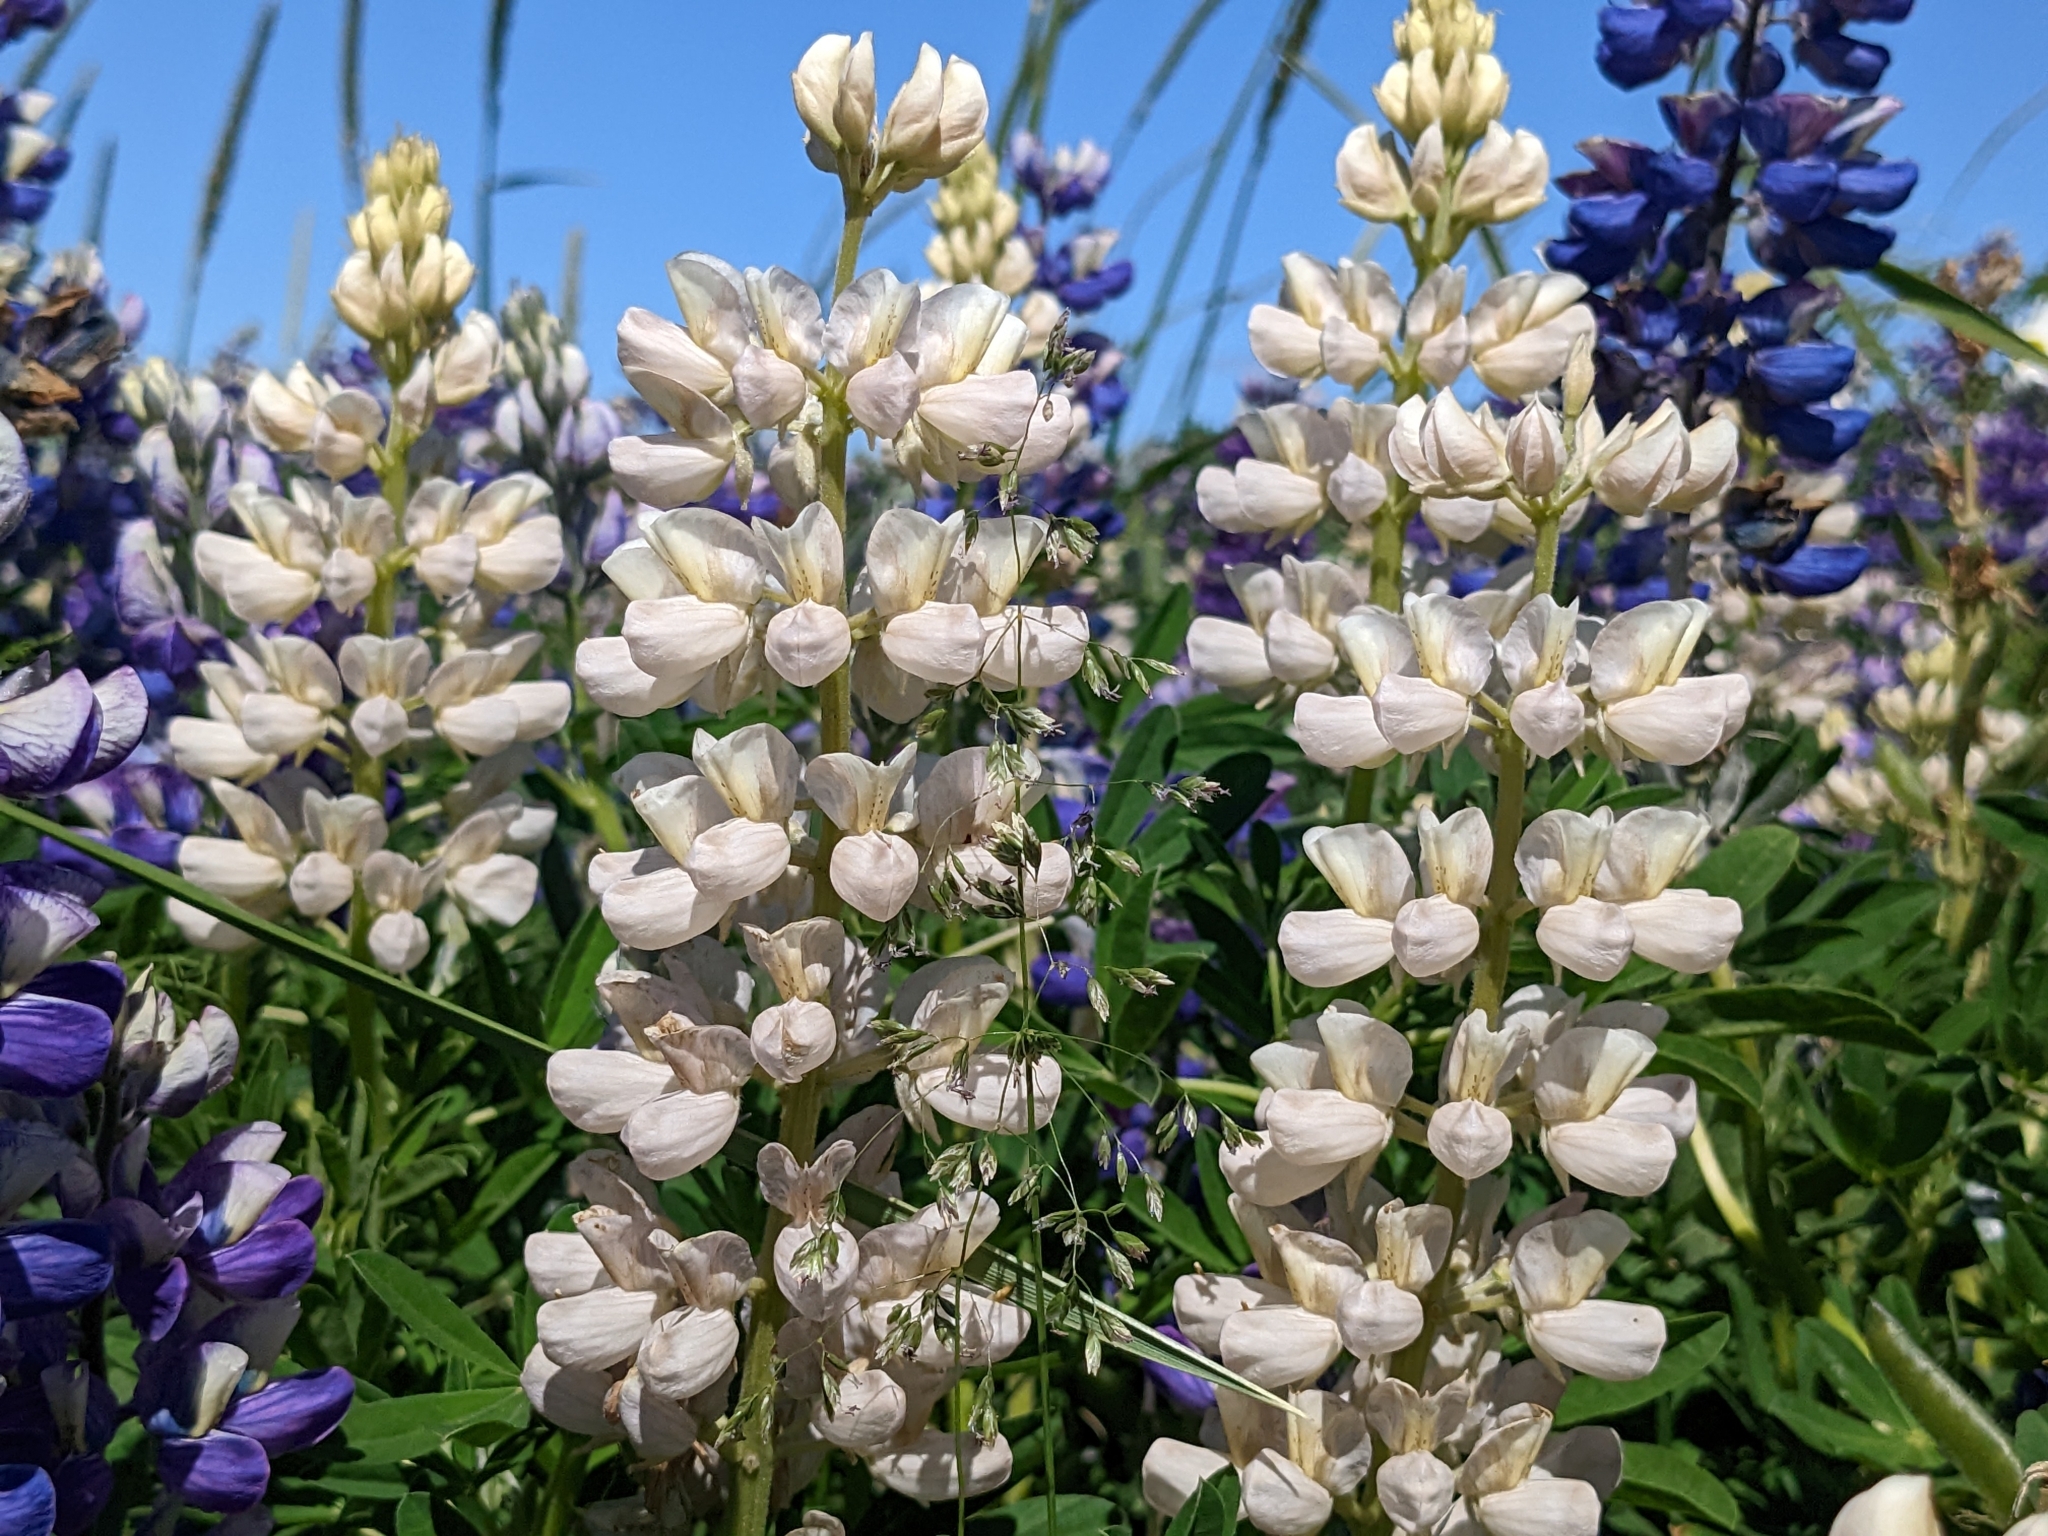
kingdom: Plantae
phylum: Tracheophyta
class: Magnoliopsida
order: Fabales
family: Fabaceae
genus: Lupinus
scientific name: Lupinus nootkatensis
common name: Nootka lupine
